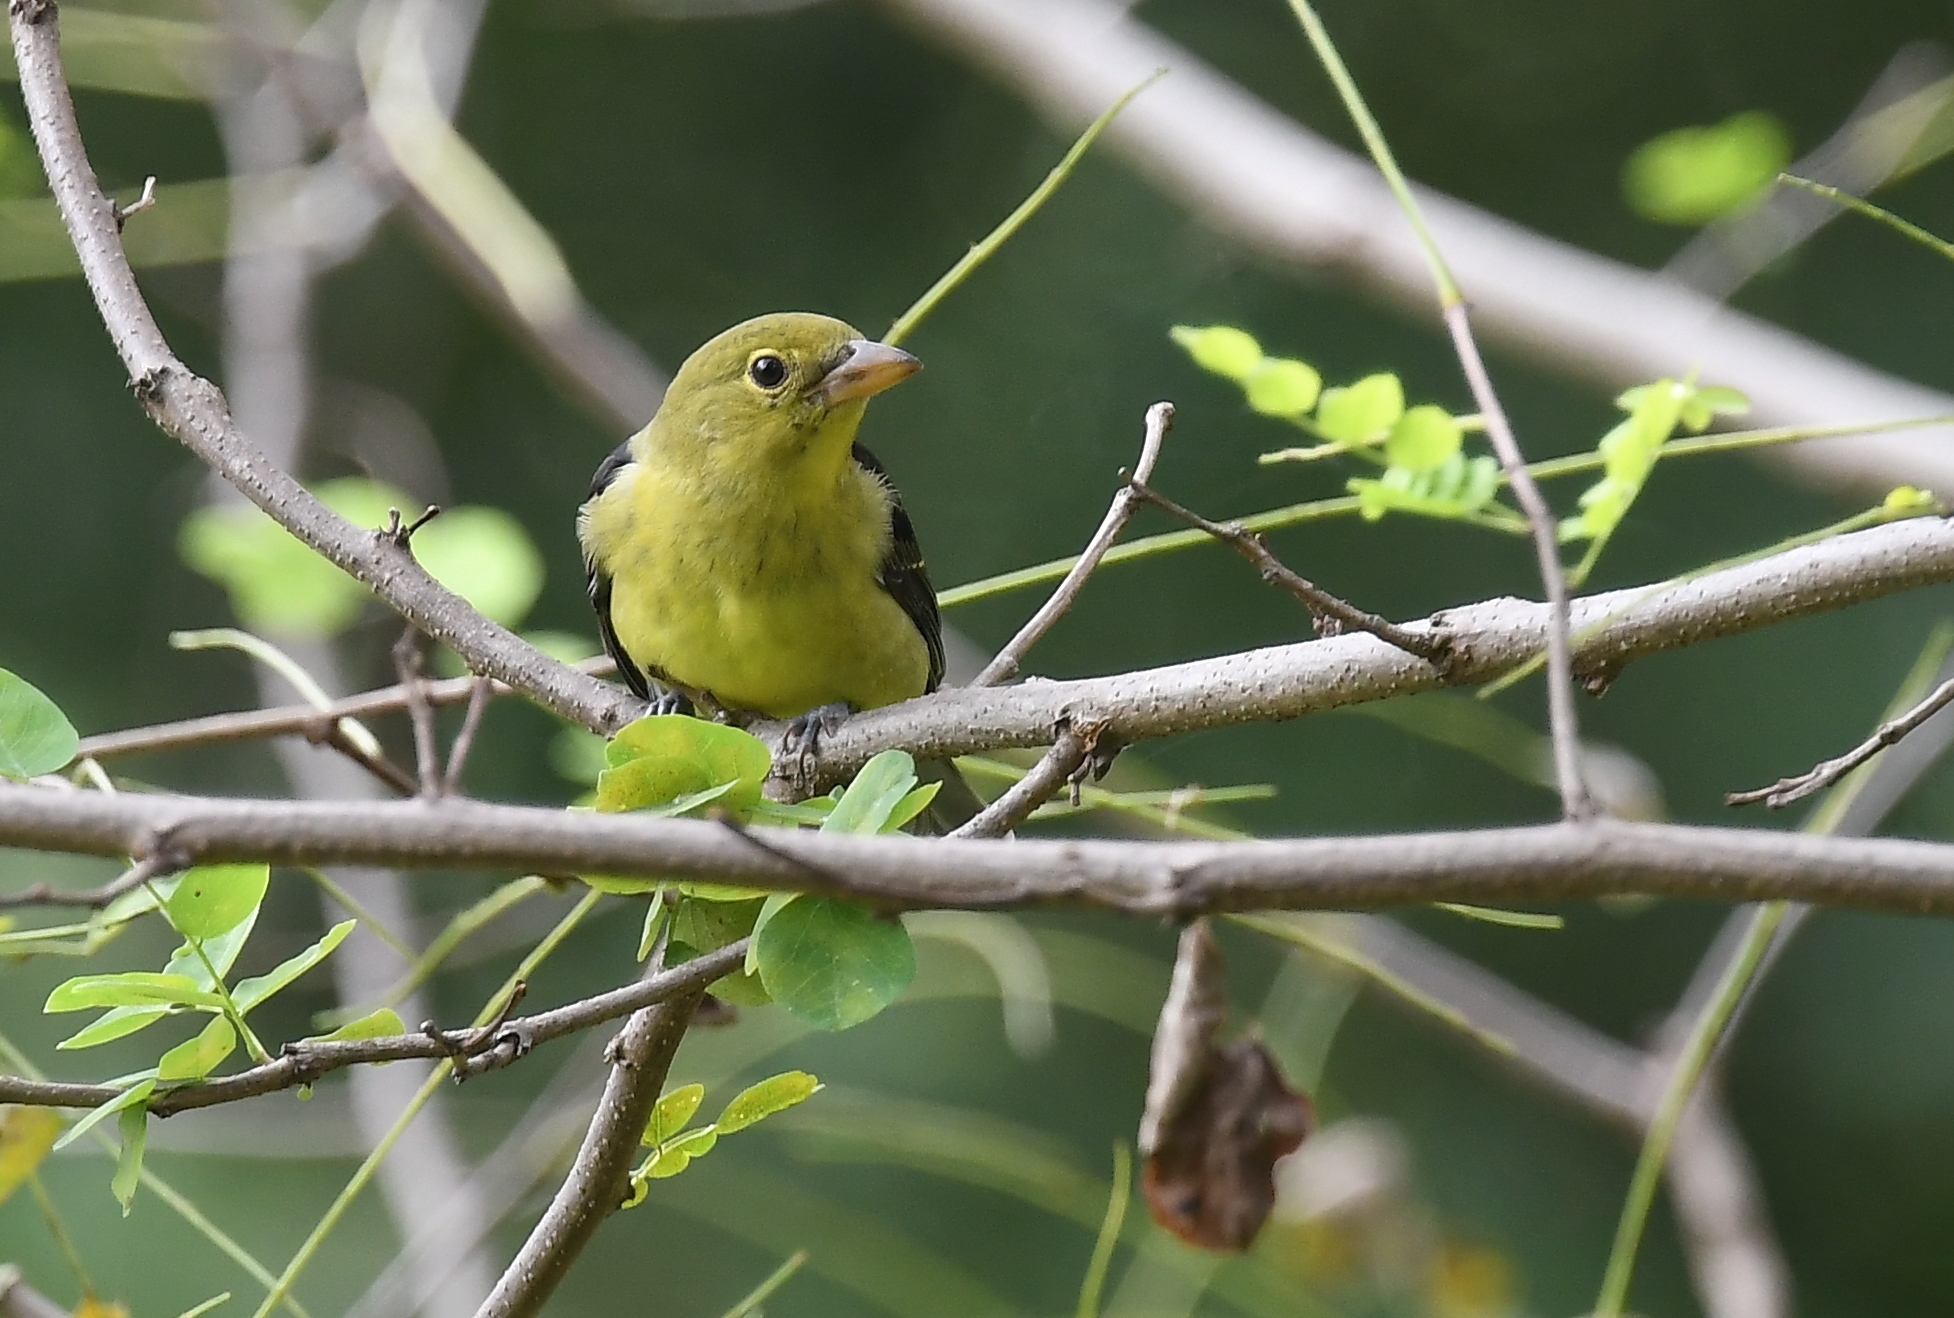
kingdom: Animalia
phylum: Chordata
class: Aves
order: Passeriformes
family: Cardinalidae
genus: Piranga
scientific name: Piranga olivacea
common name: Scarlet tanager
